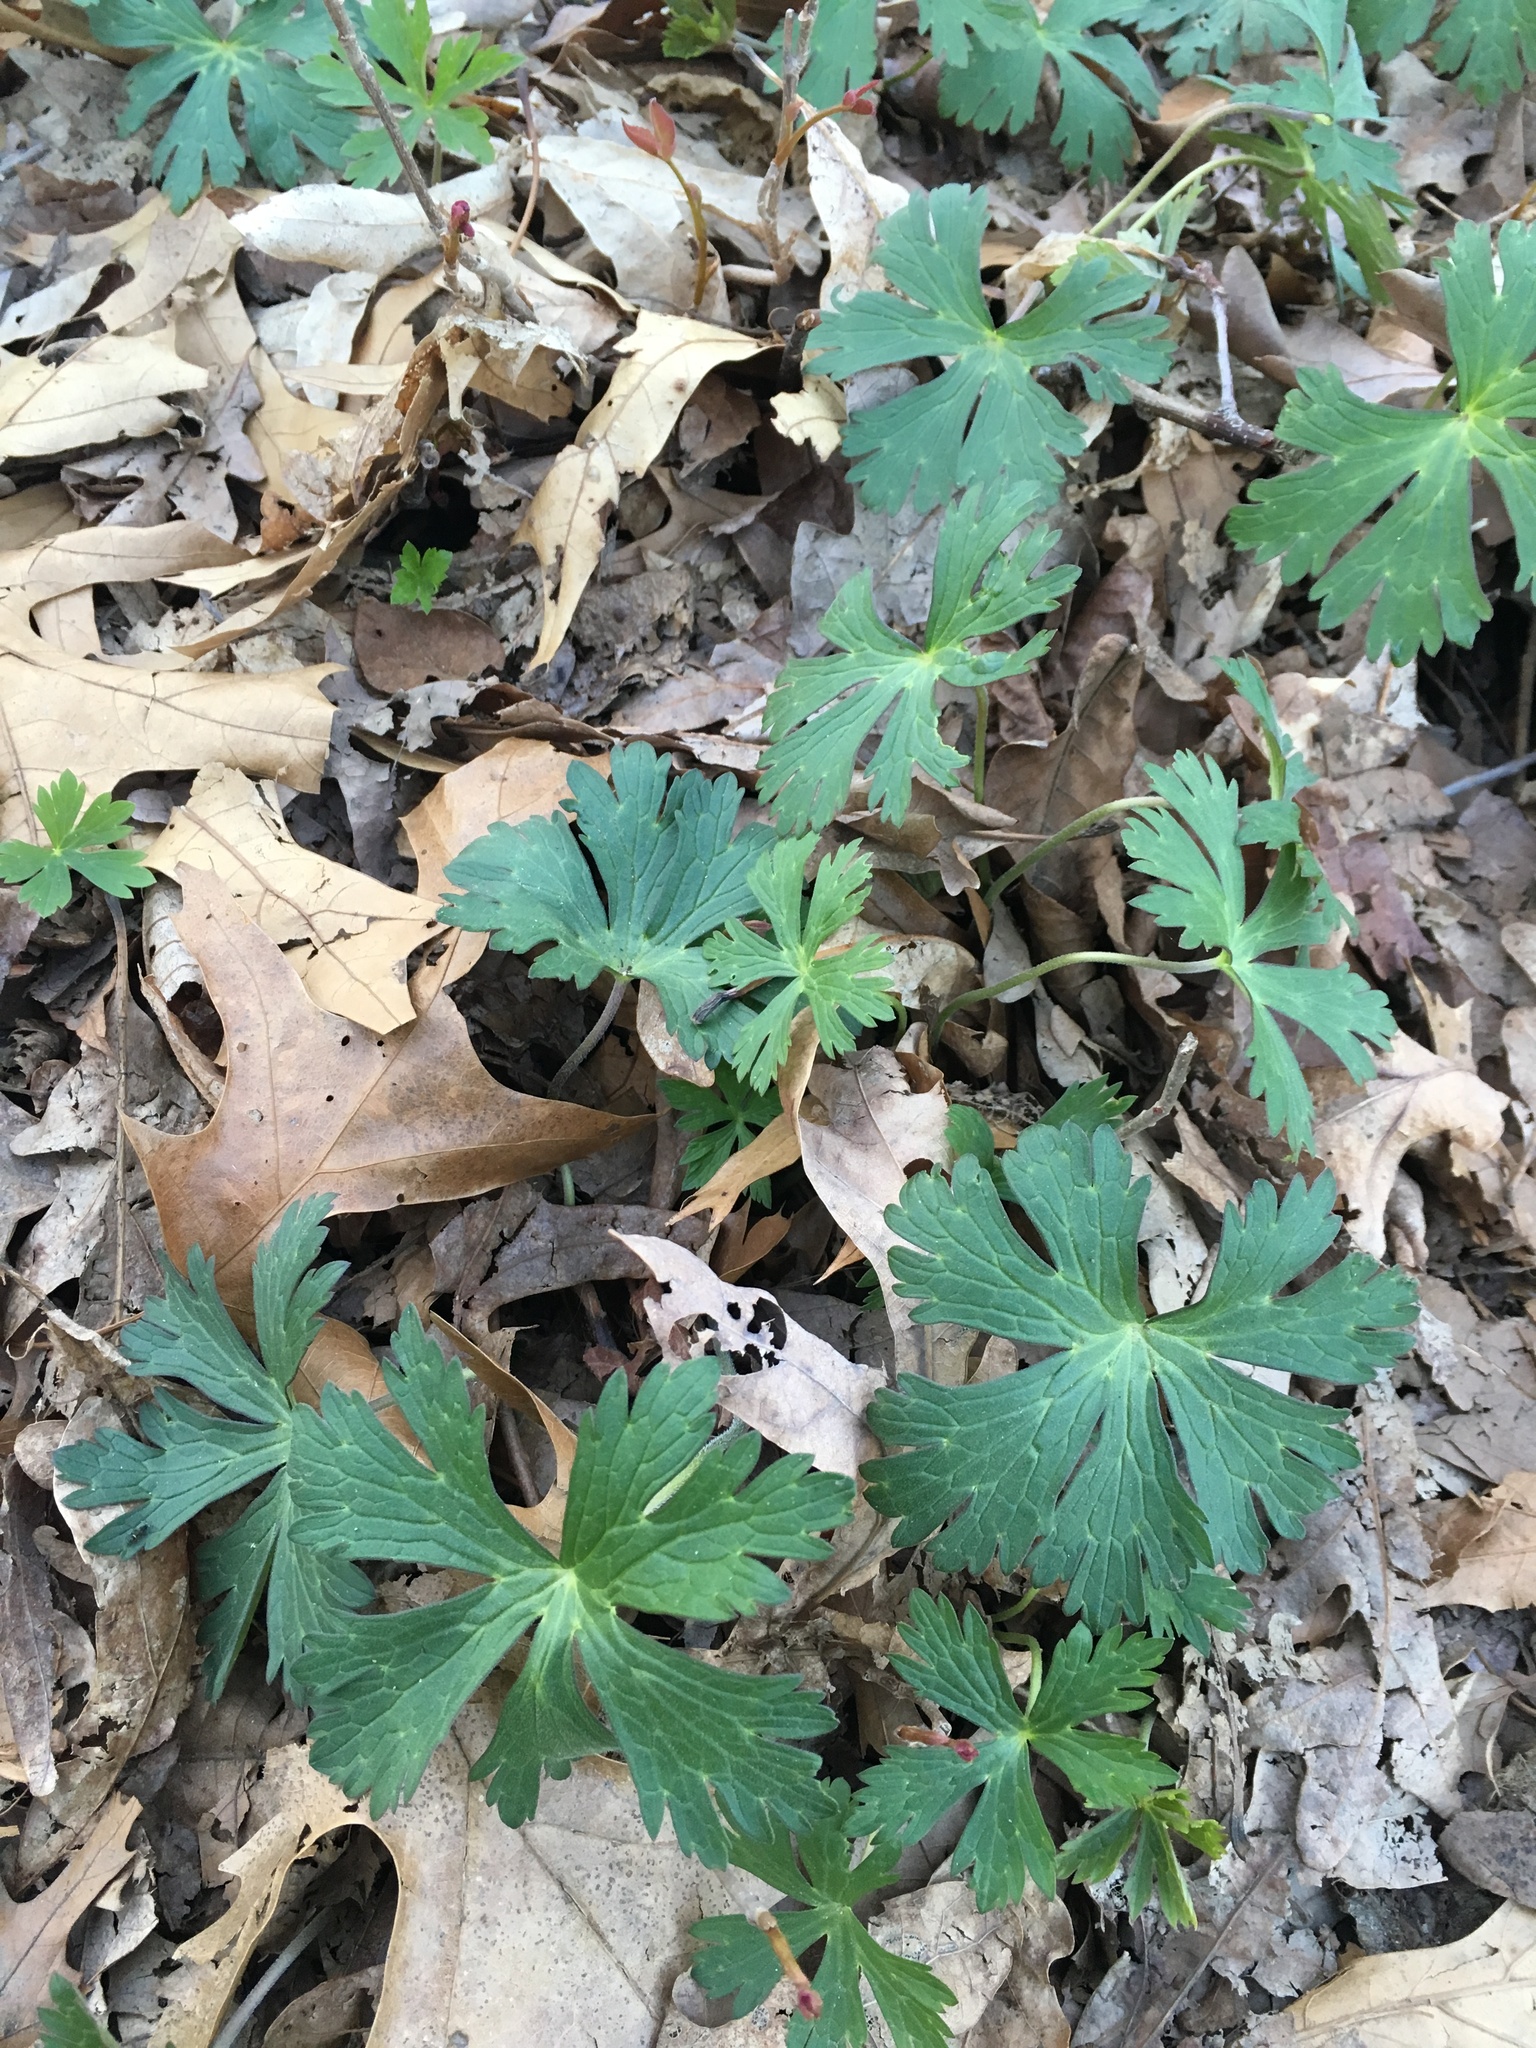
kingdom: Plantae
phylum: Tracheophyta
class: Magnoliopsida
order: Geraniales
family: Geraniaceae
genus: Geranium
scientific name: Geranium maculatum
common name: Spotted geranium
